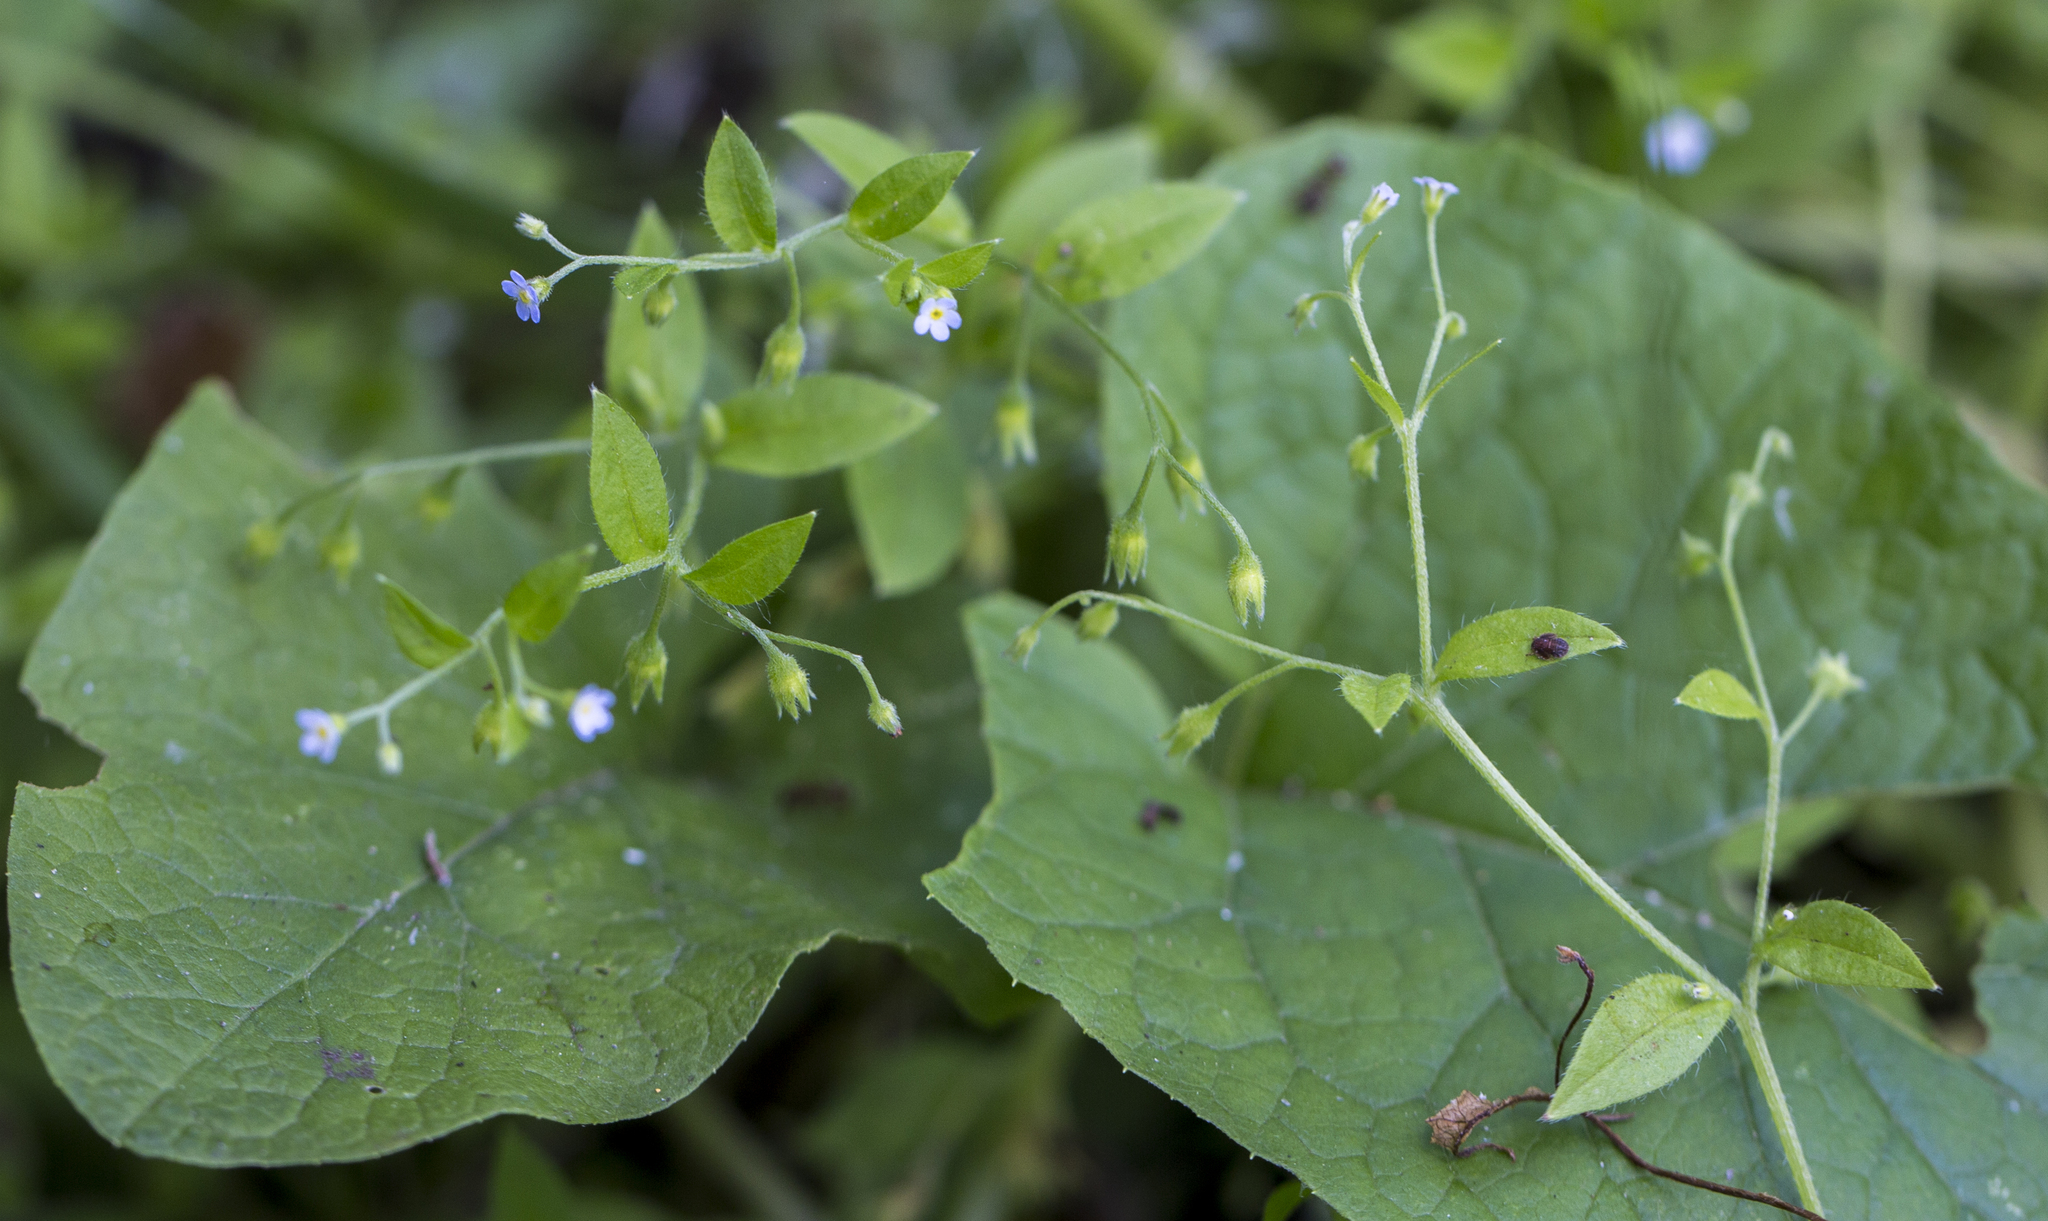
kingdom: Plantae
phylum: Tracheophyta
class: Magnoliopsida
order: Boraginales
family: Boraginaceae
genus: Myosotis
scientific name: Myosotis sparsiflora
